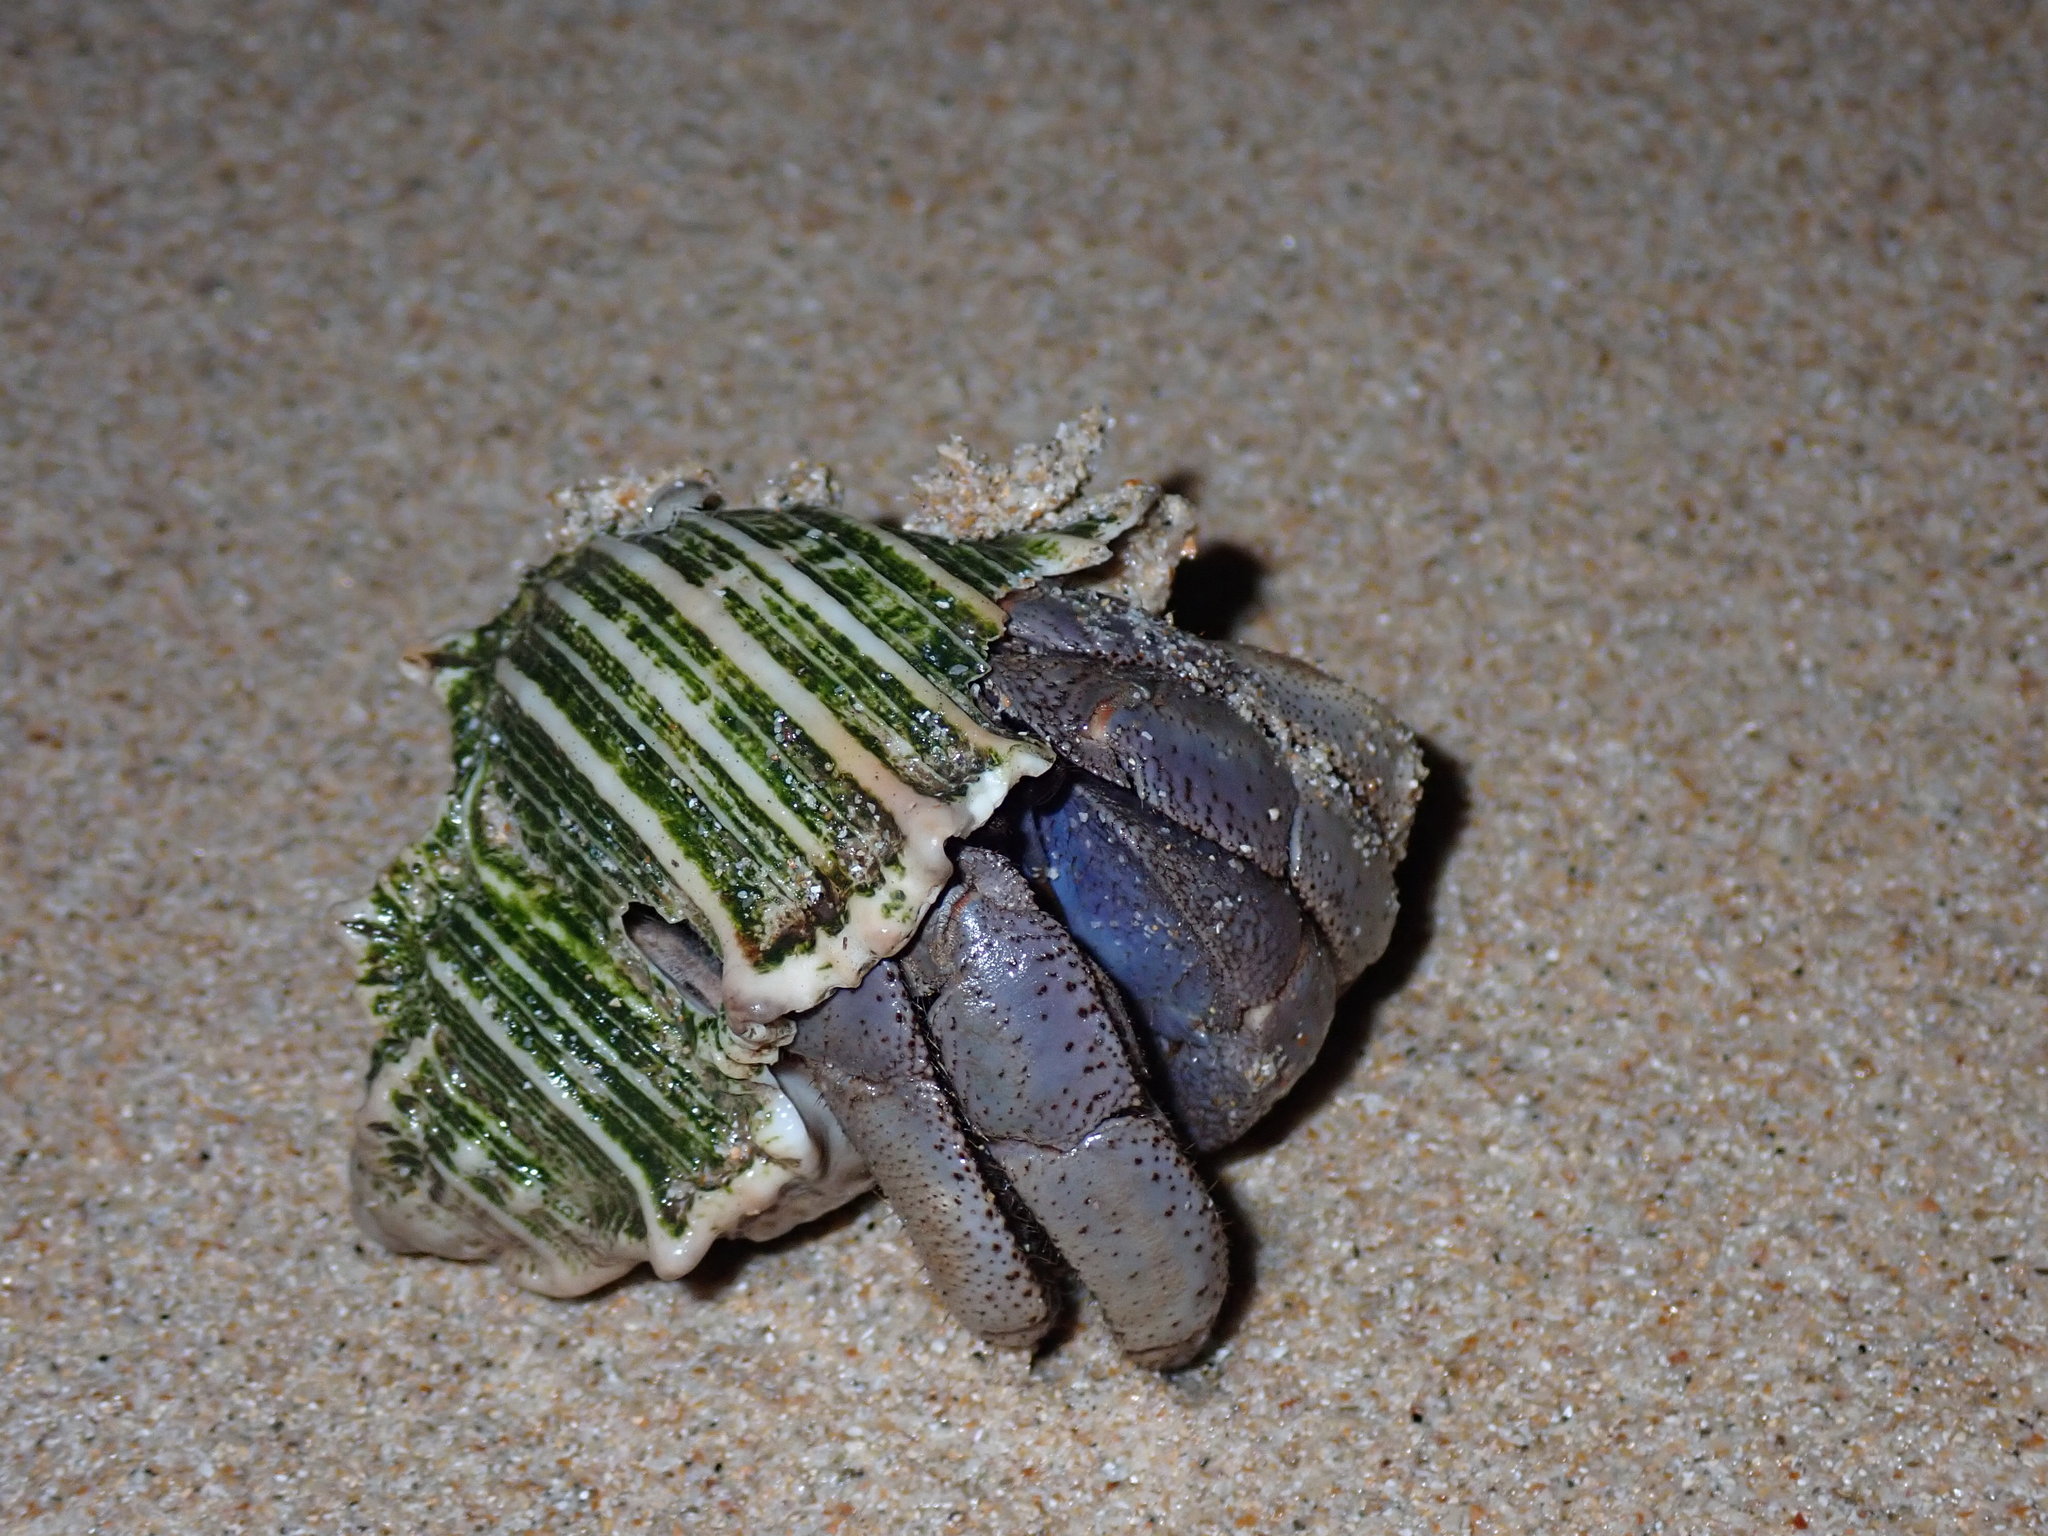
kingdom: Animalia
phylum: Arthropoda
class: Malacostraca
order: Decapoda
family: Coenobitidae
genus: Coenobita
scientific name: Coenobita violascens
